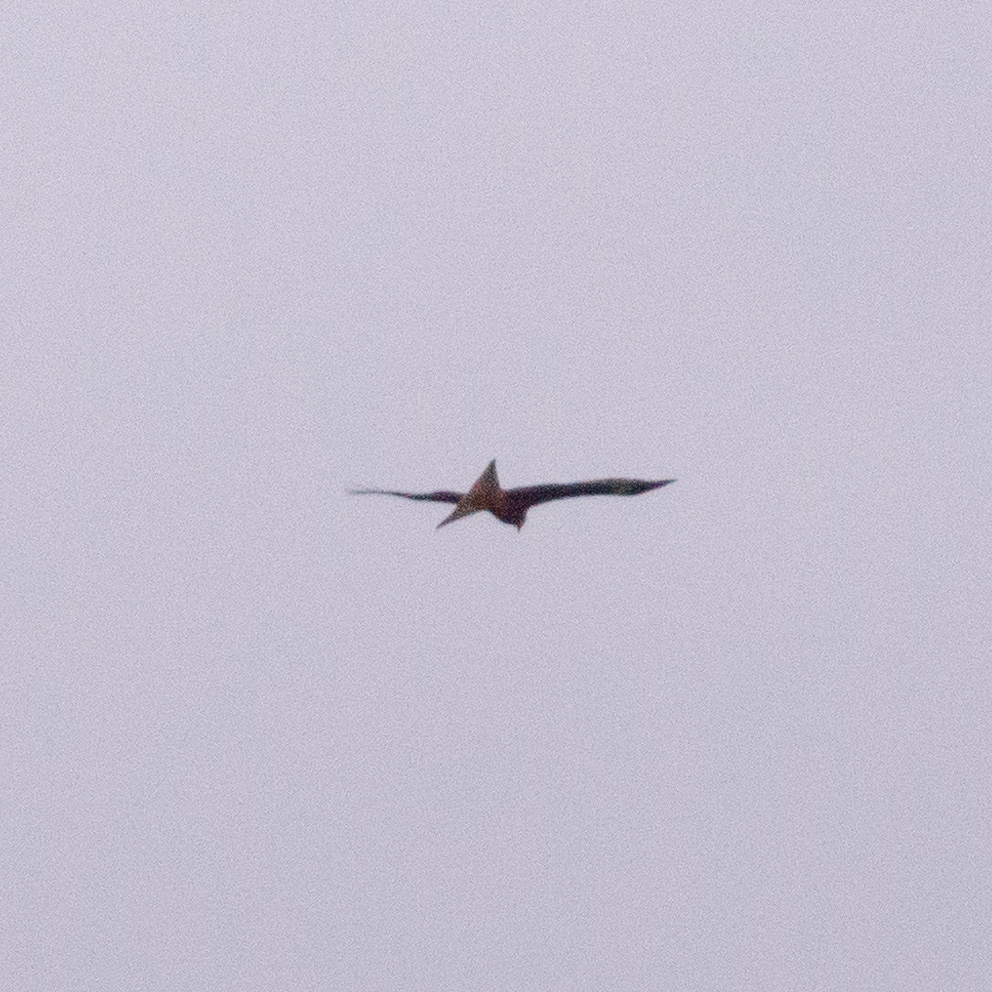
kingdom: Animalia
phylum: Chordata
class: Aves
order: Accipitriformes
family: Accipitridae
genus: Milvus
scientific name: Milvus milvus
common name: Red kite
